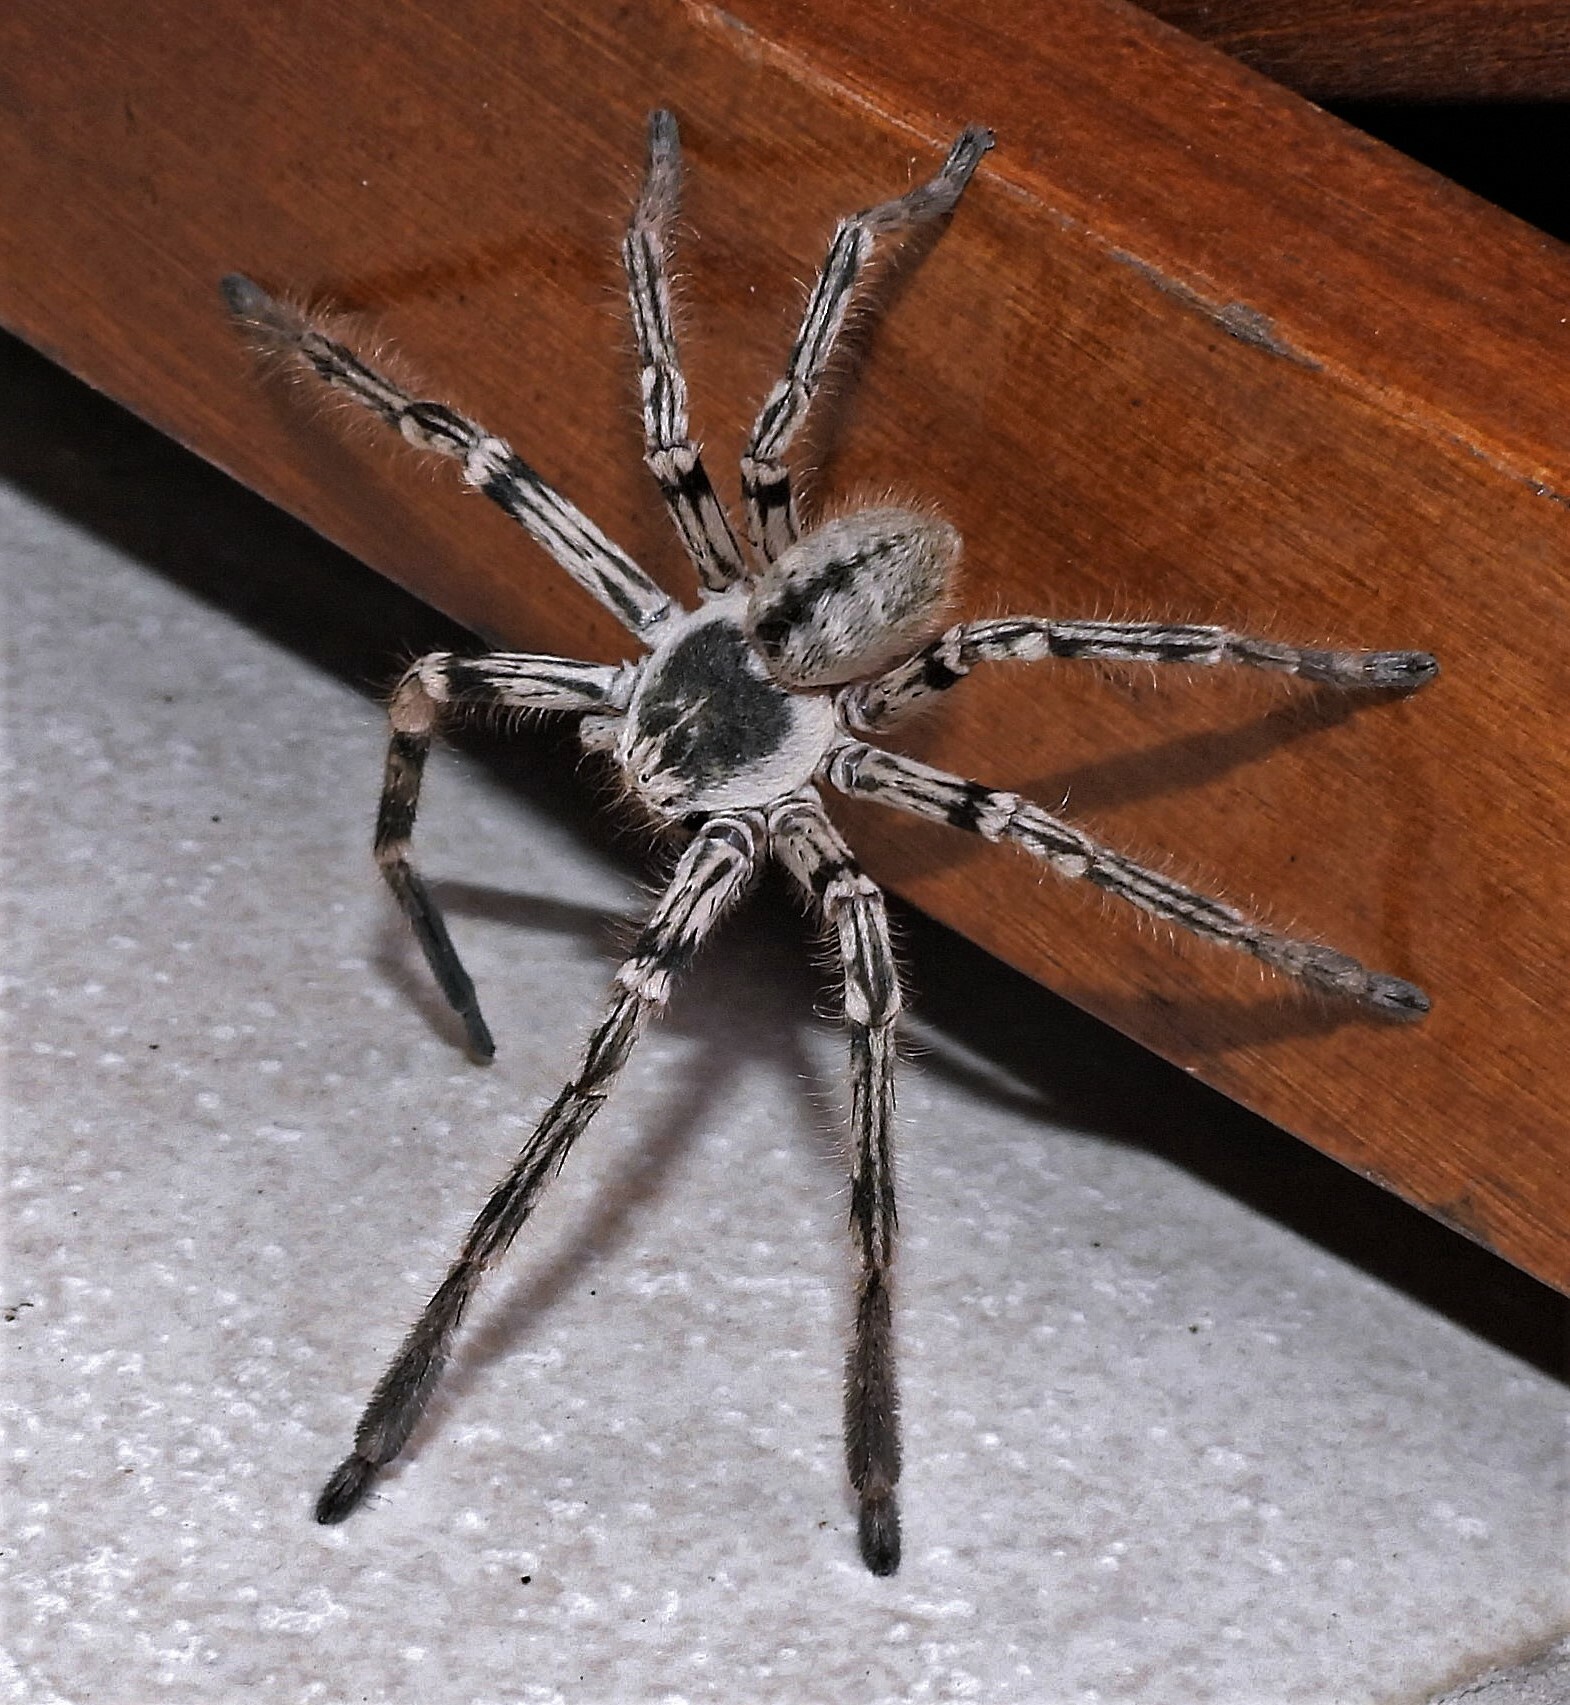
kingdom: Animalia
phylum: Arthropoda
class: Arachnida
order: Araneae
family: Sparassidae
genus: Polybetes
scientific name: Polybetes pythagoricus
